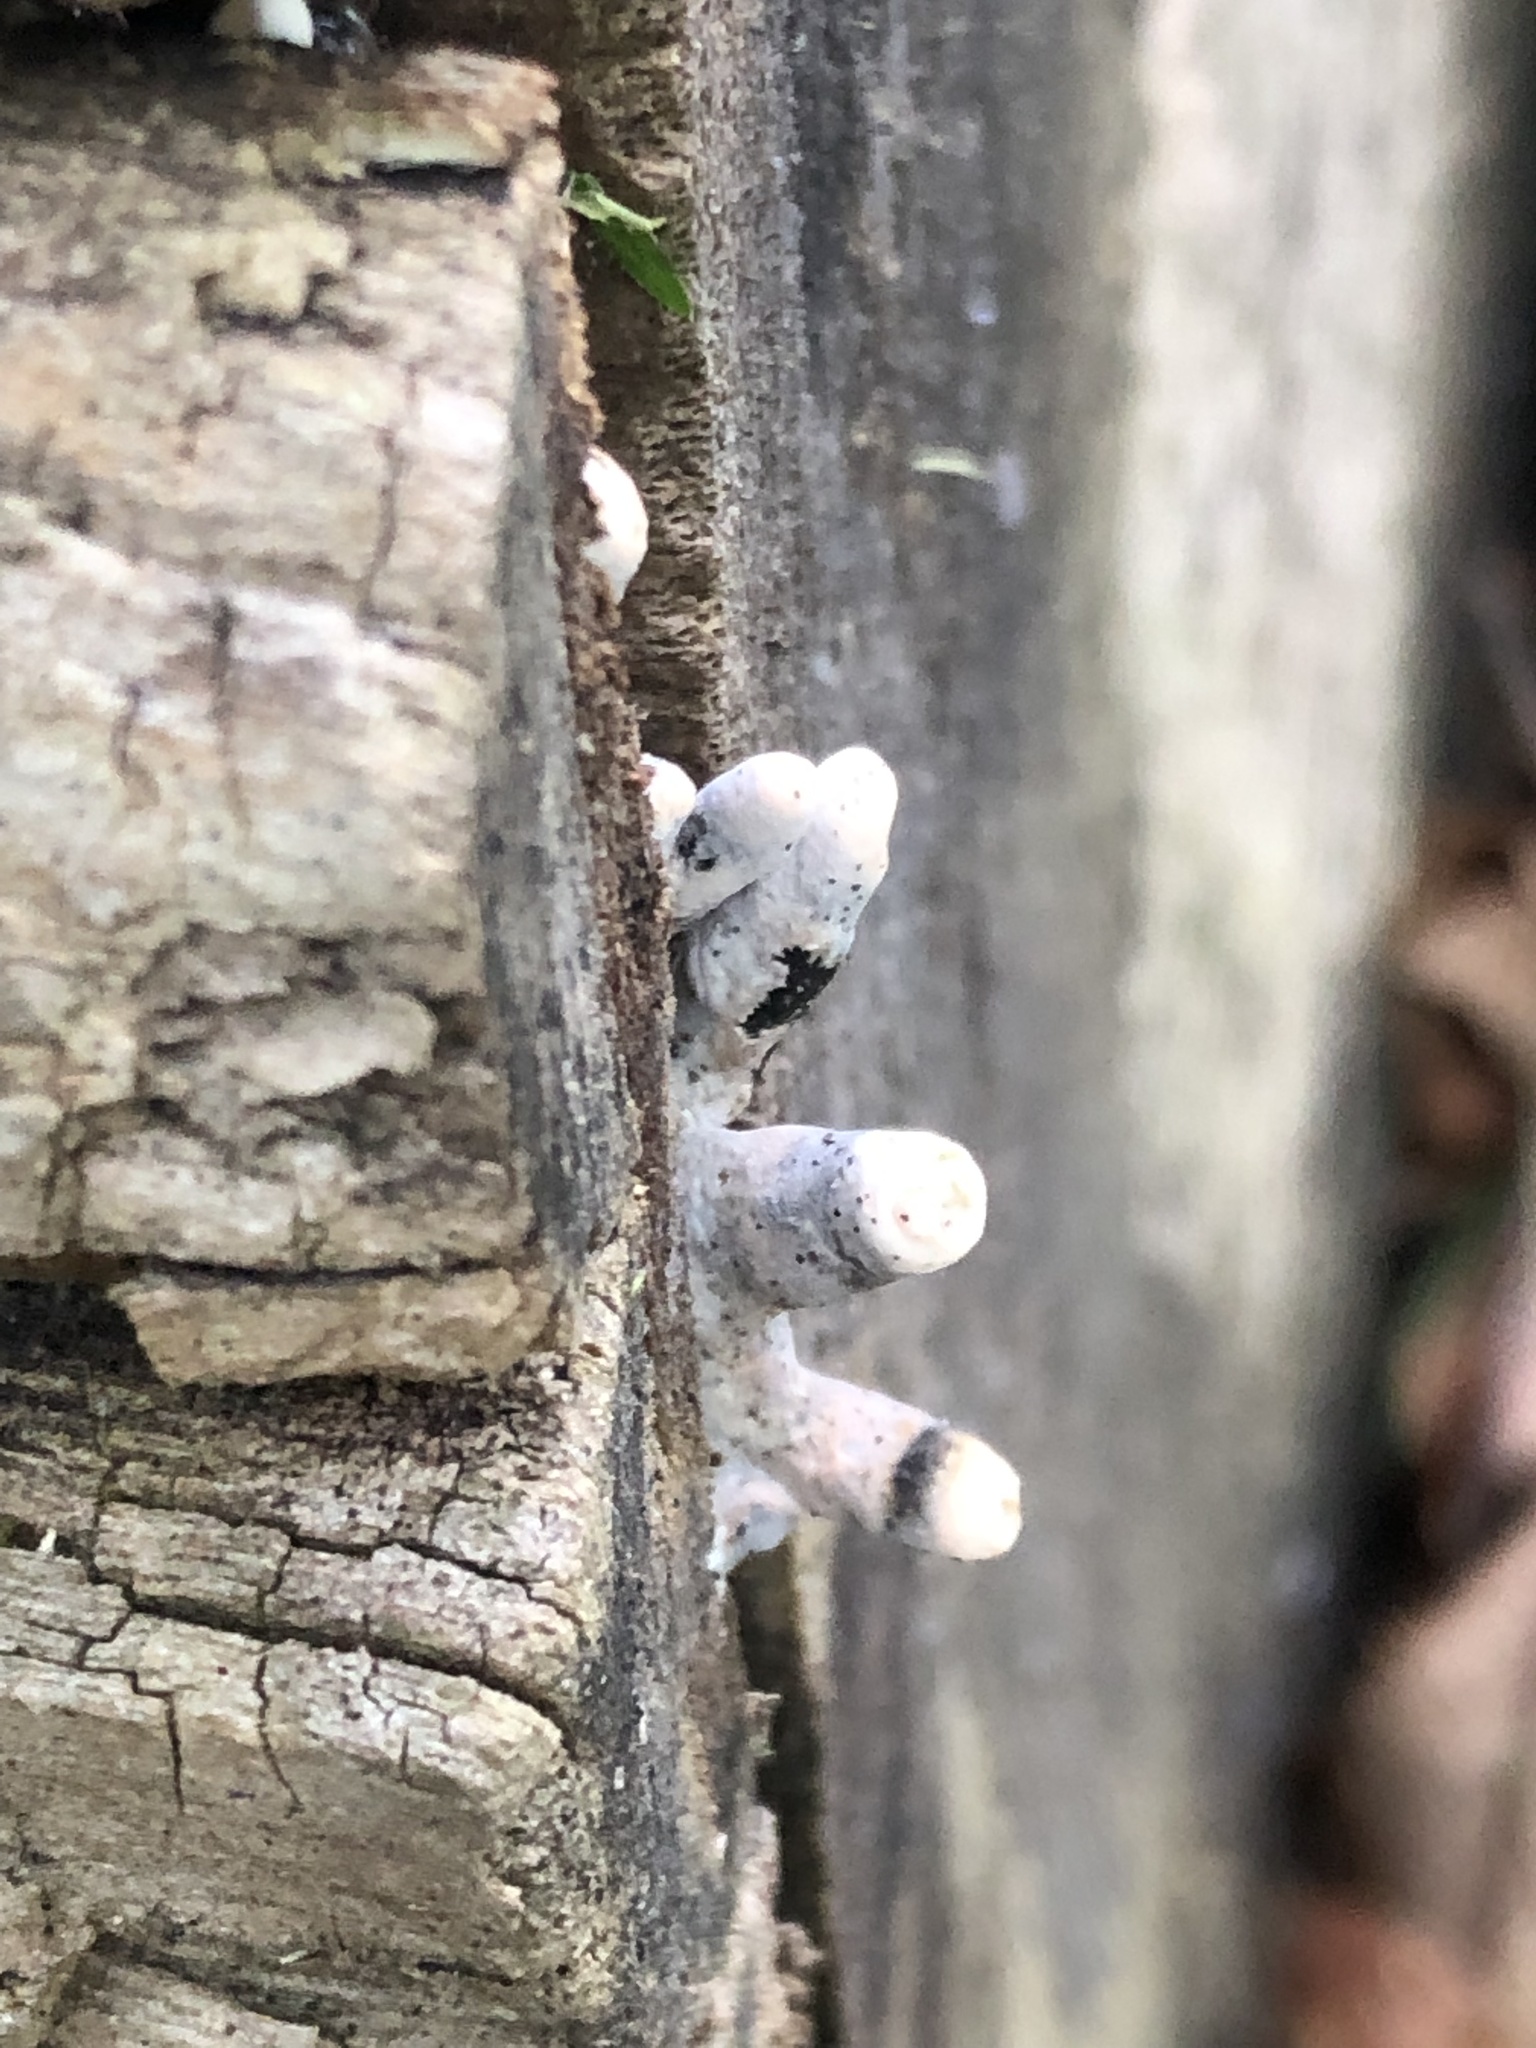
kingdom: Fungi
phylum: Ascomycota
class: Sordariomycetes
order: Xylariales
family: Xylariaceae
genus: Xylaria
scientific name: Xylaria polymorpha
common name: Dead man's fingers
